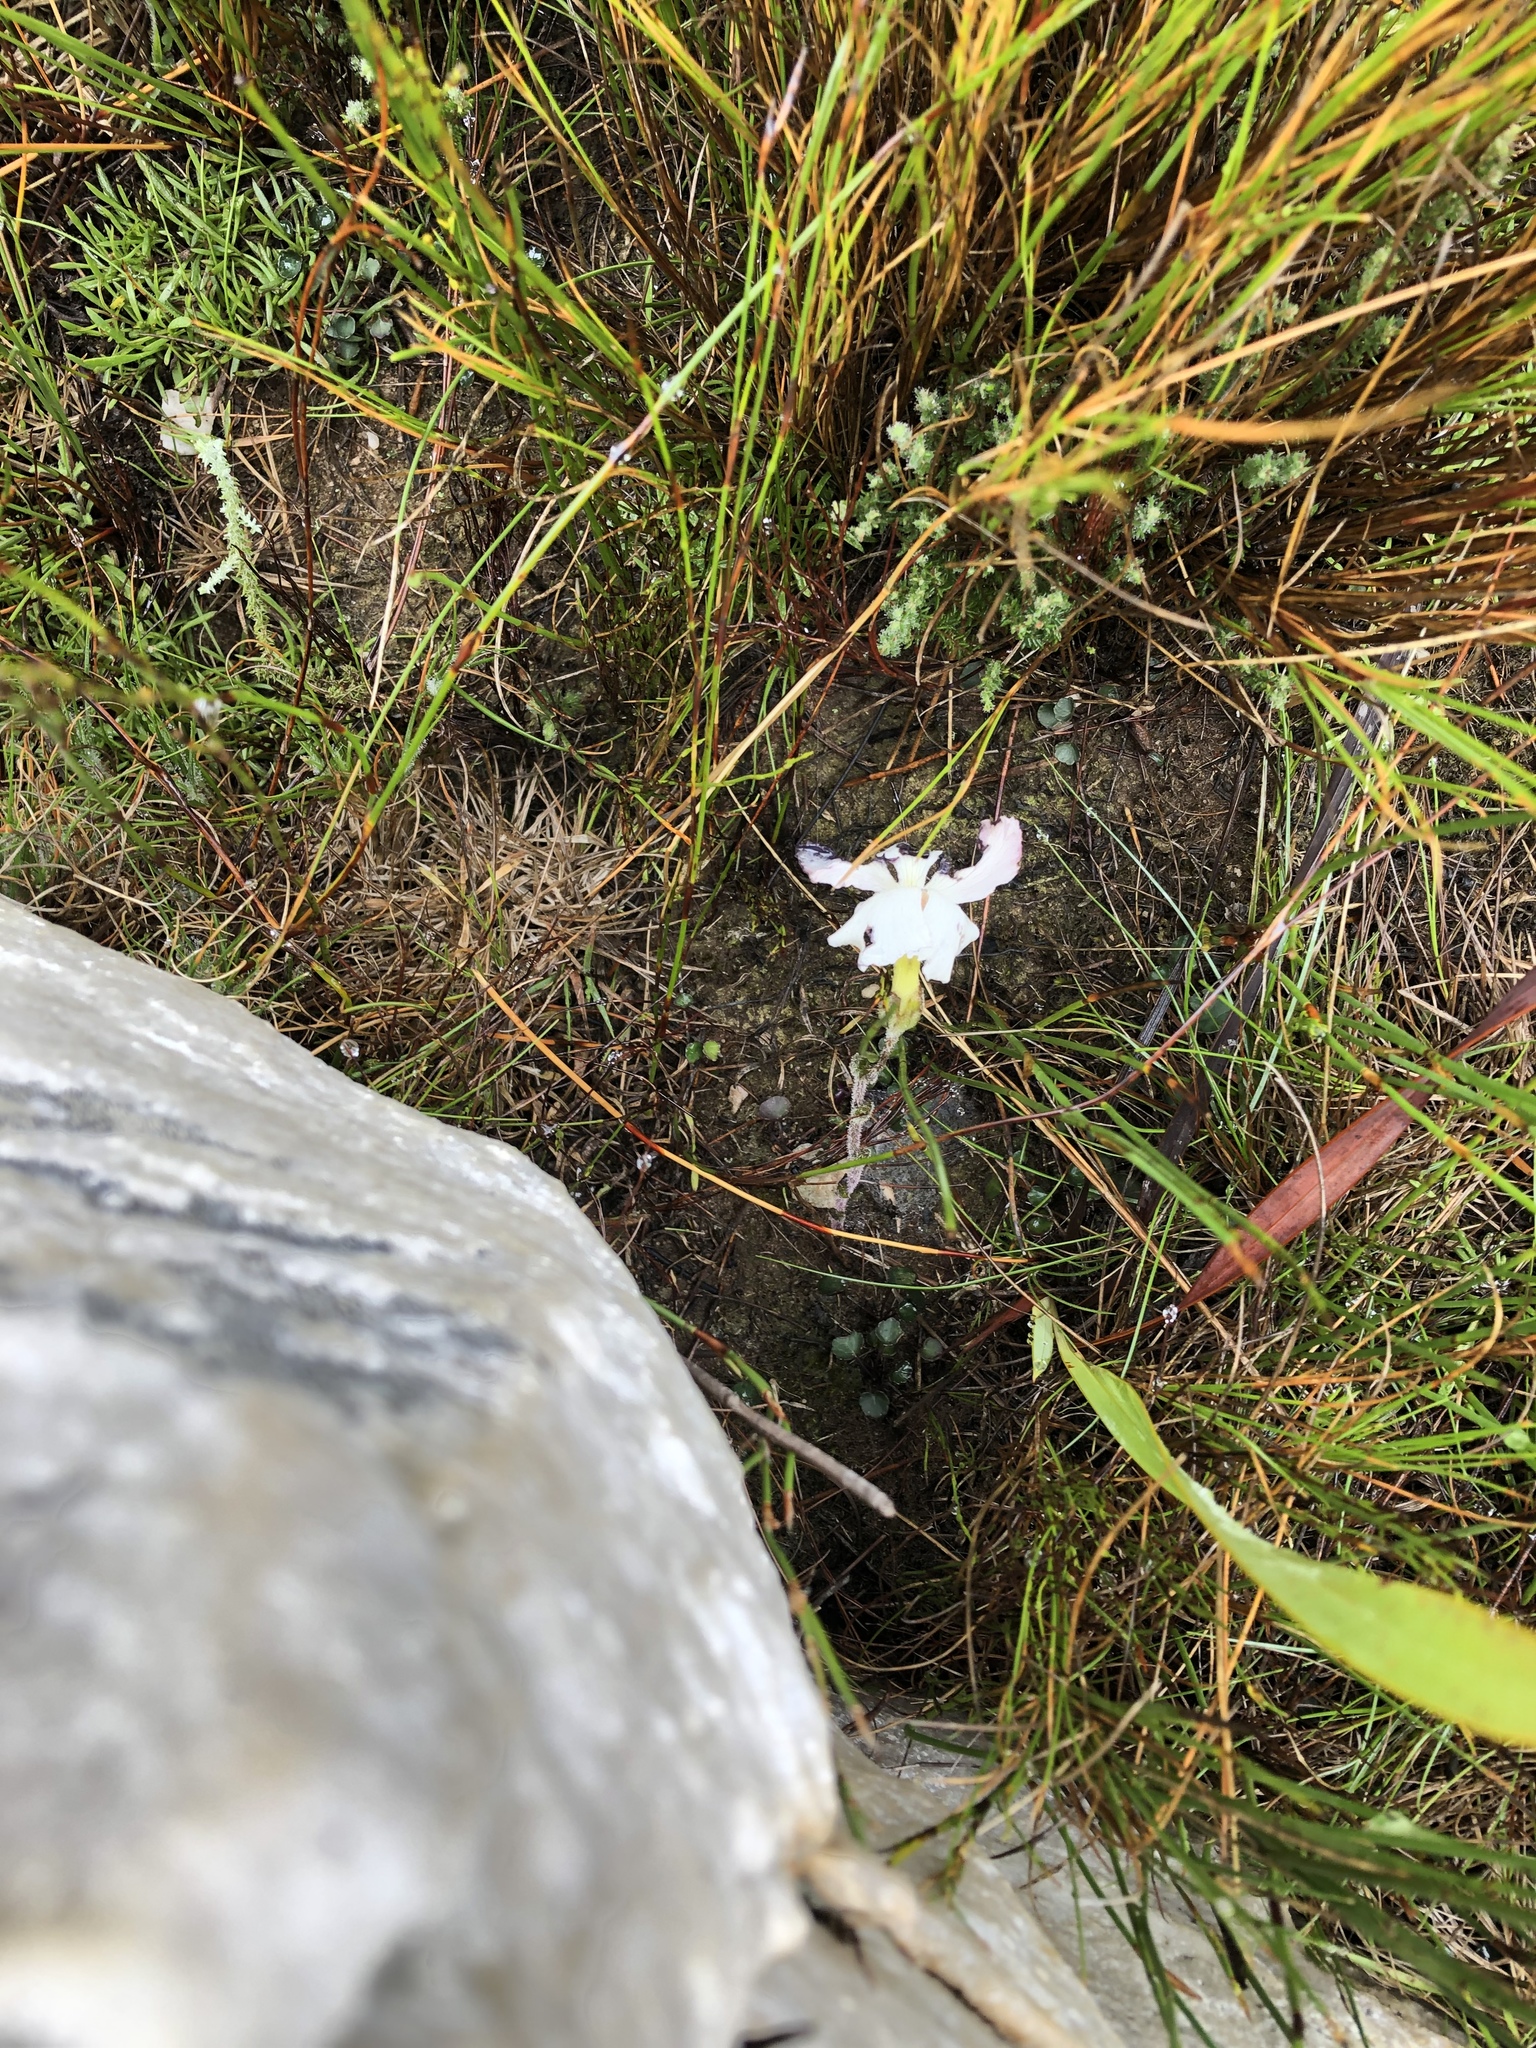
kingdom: Plantae
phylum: Tracheophyta
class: Magnoliopsida
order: Lamiales
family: Orobanchaceae
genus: Harveya
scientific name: Harveya capensis
